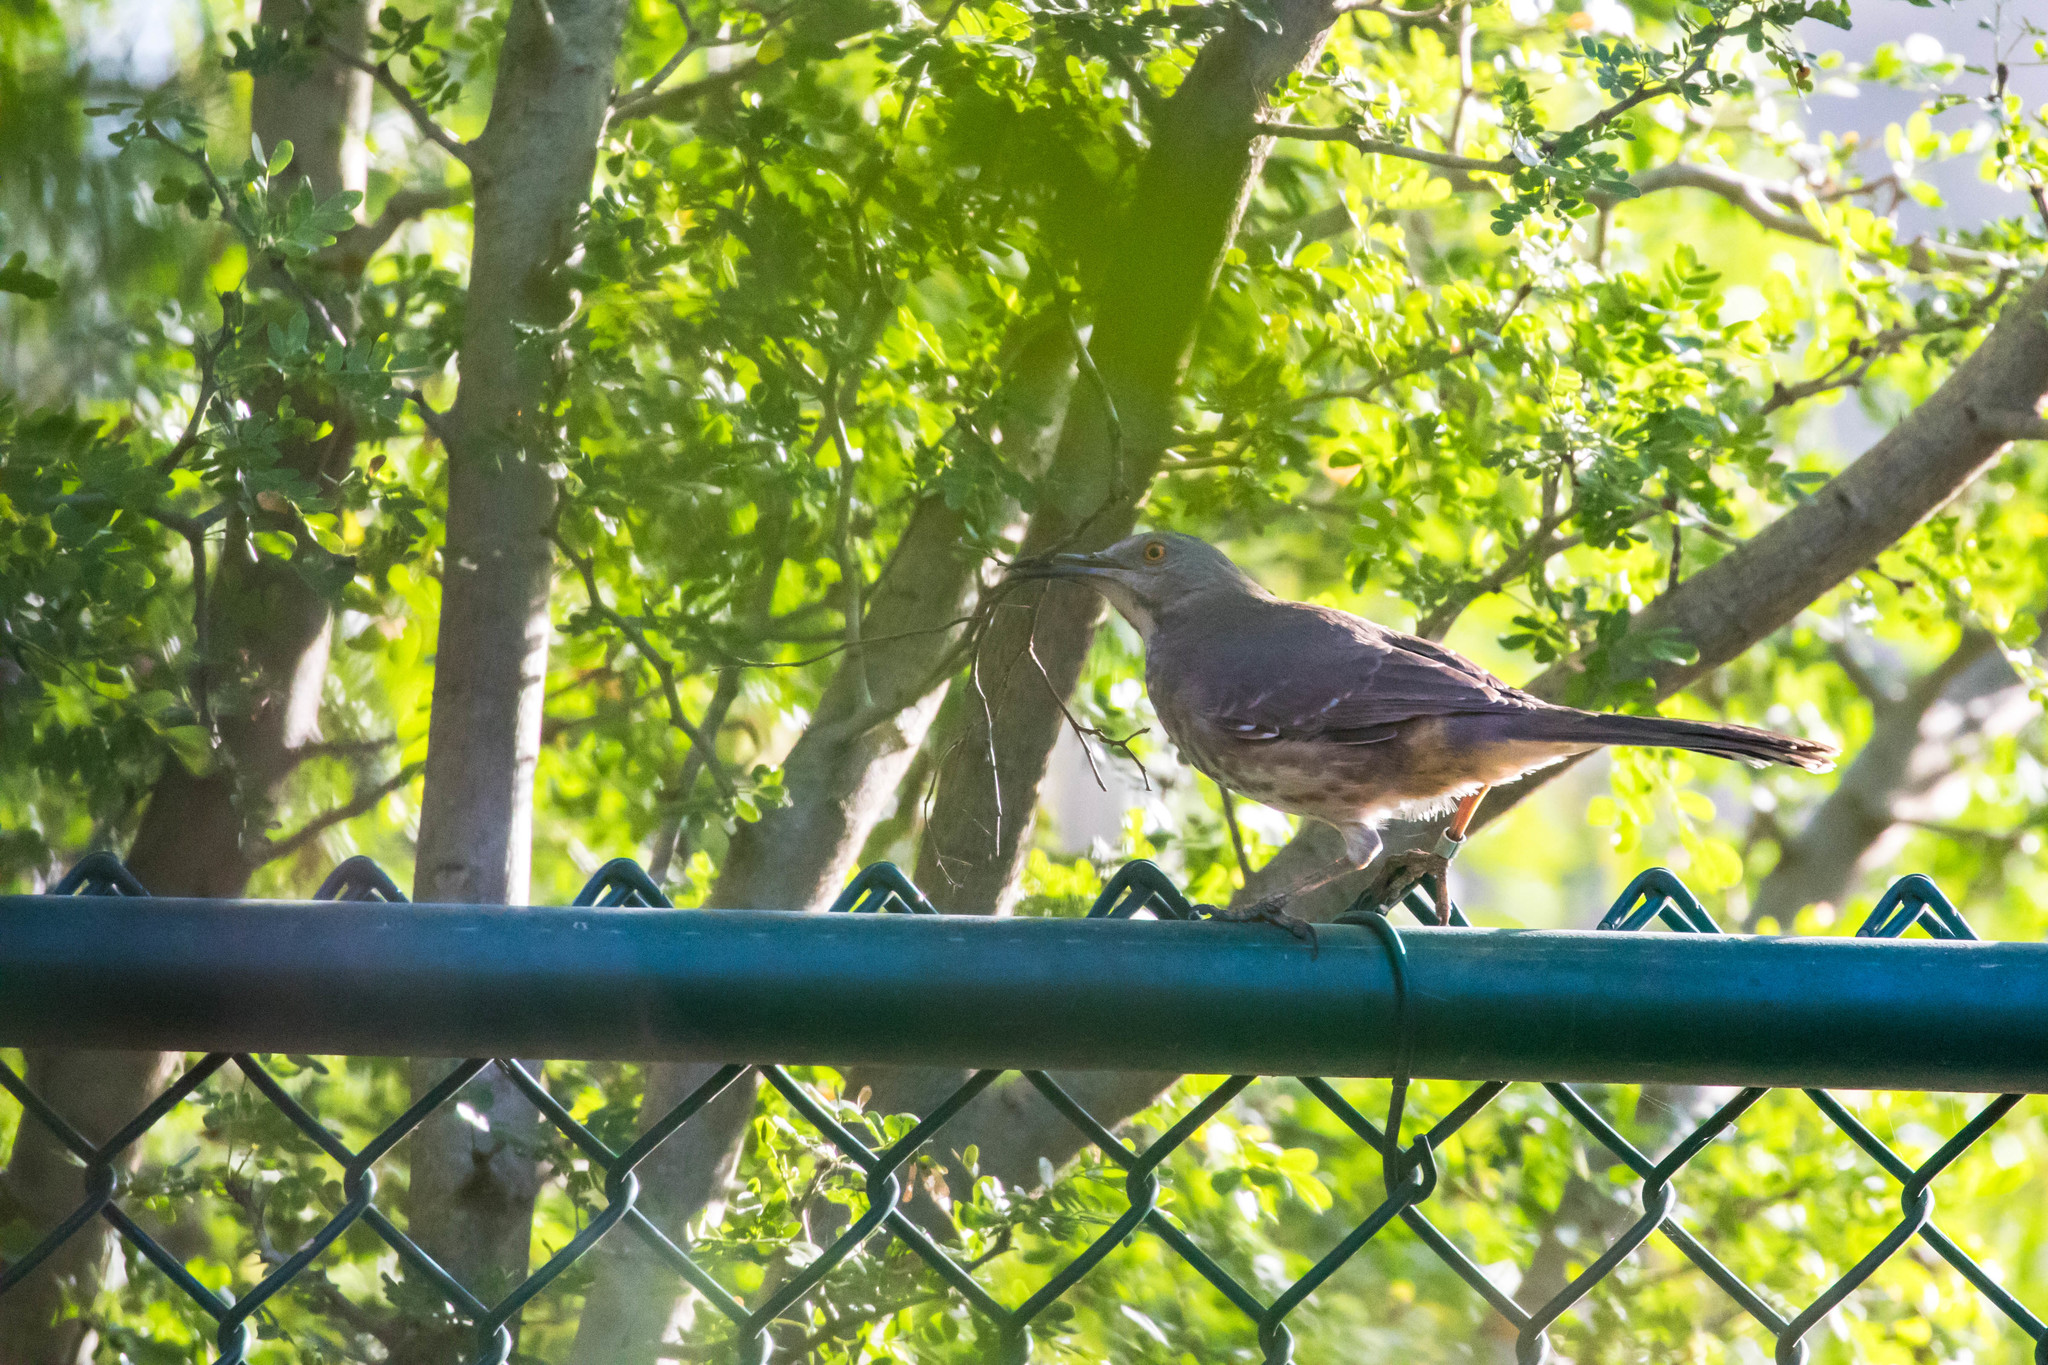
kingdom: Animalia
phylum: Chordata
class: Aves
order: Passeriformes
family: Mimidae
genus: Toxostoma
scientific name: Toxostoma curvirostre
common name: Curve-billed thrasher
